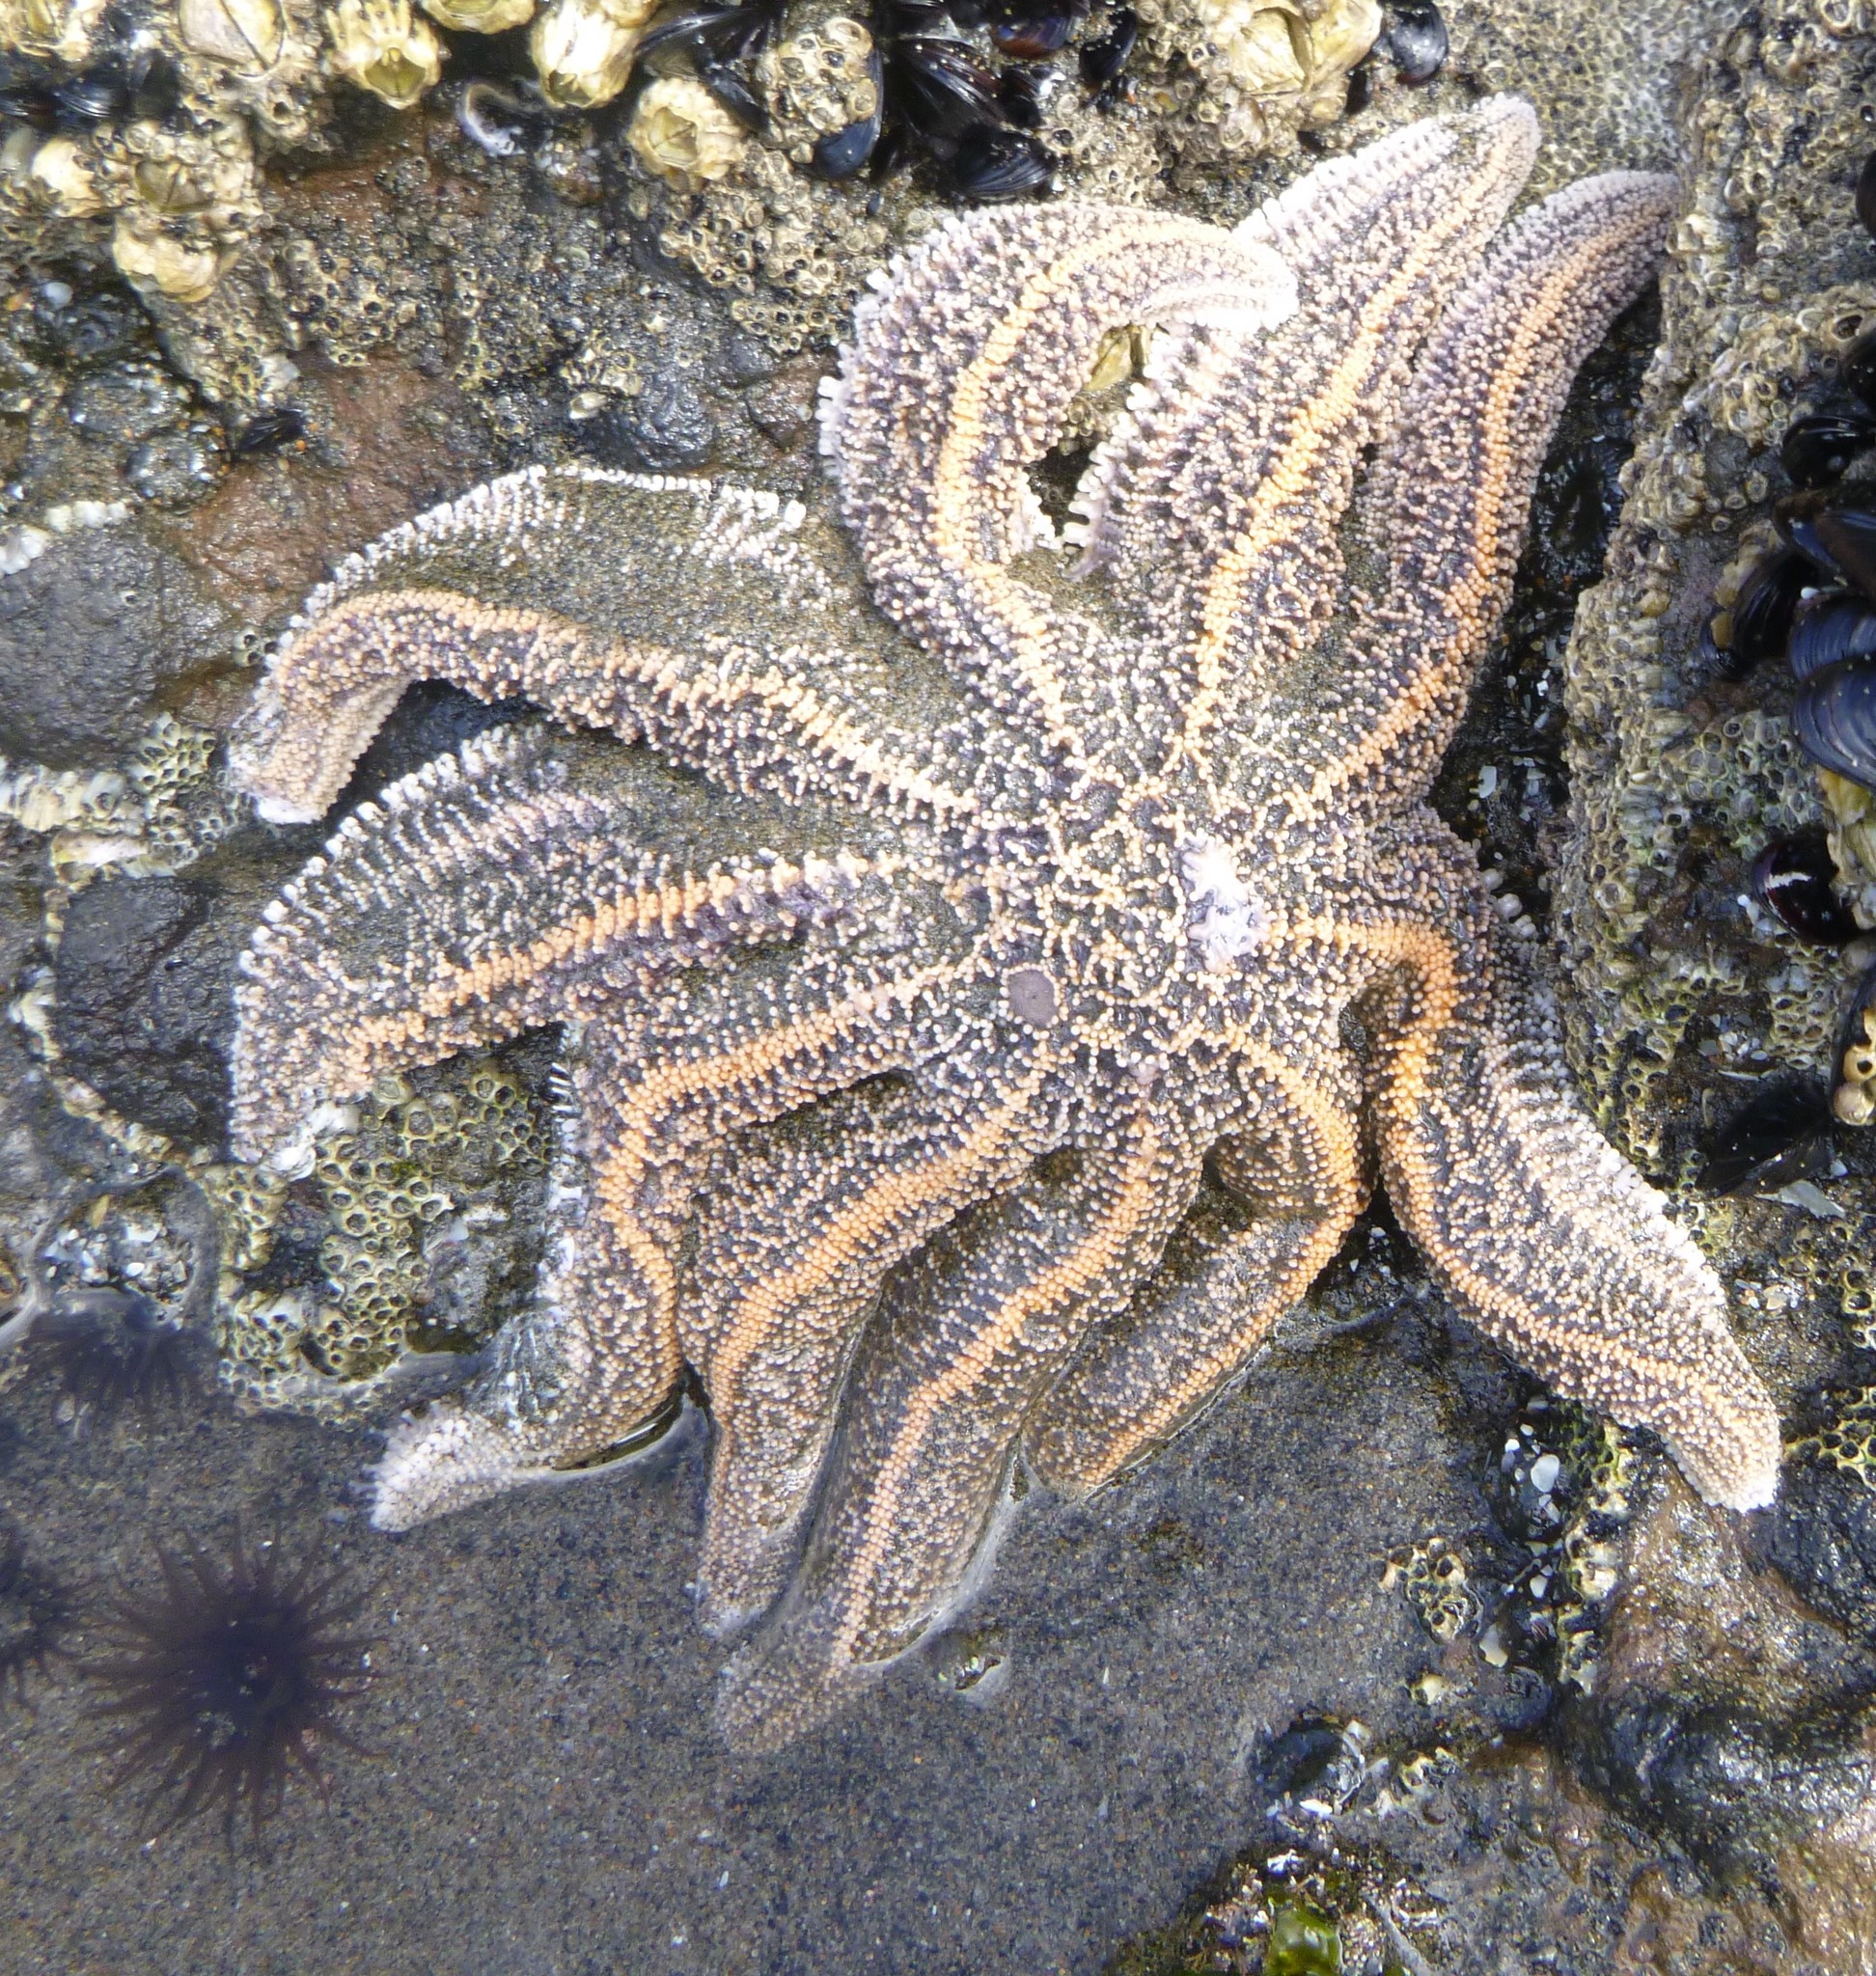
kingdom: Animalia
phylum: Echinodermata
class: Asteroidea
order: Forcipulatida
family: Stichasteridae
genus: Stichaster
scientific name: Stichaster australis
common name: Reef starfish
